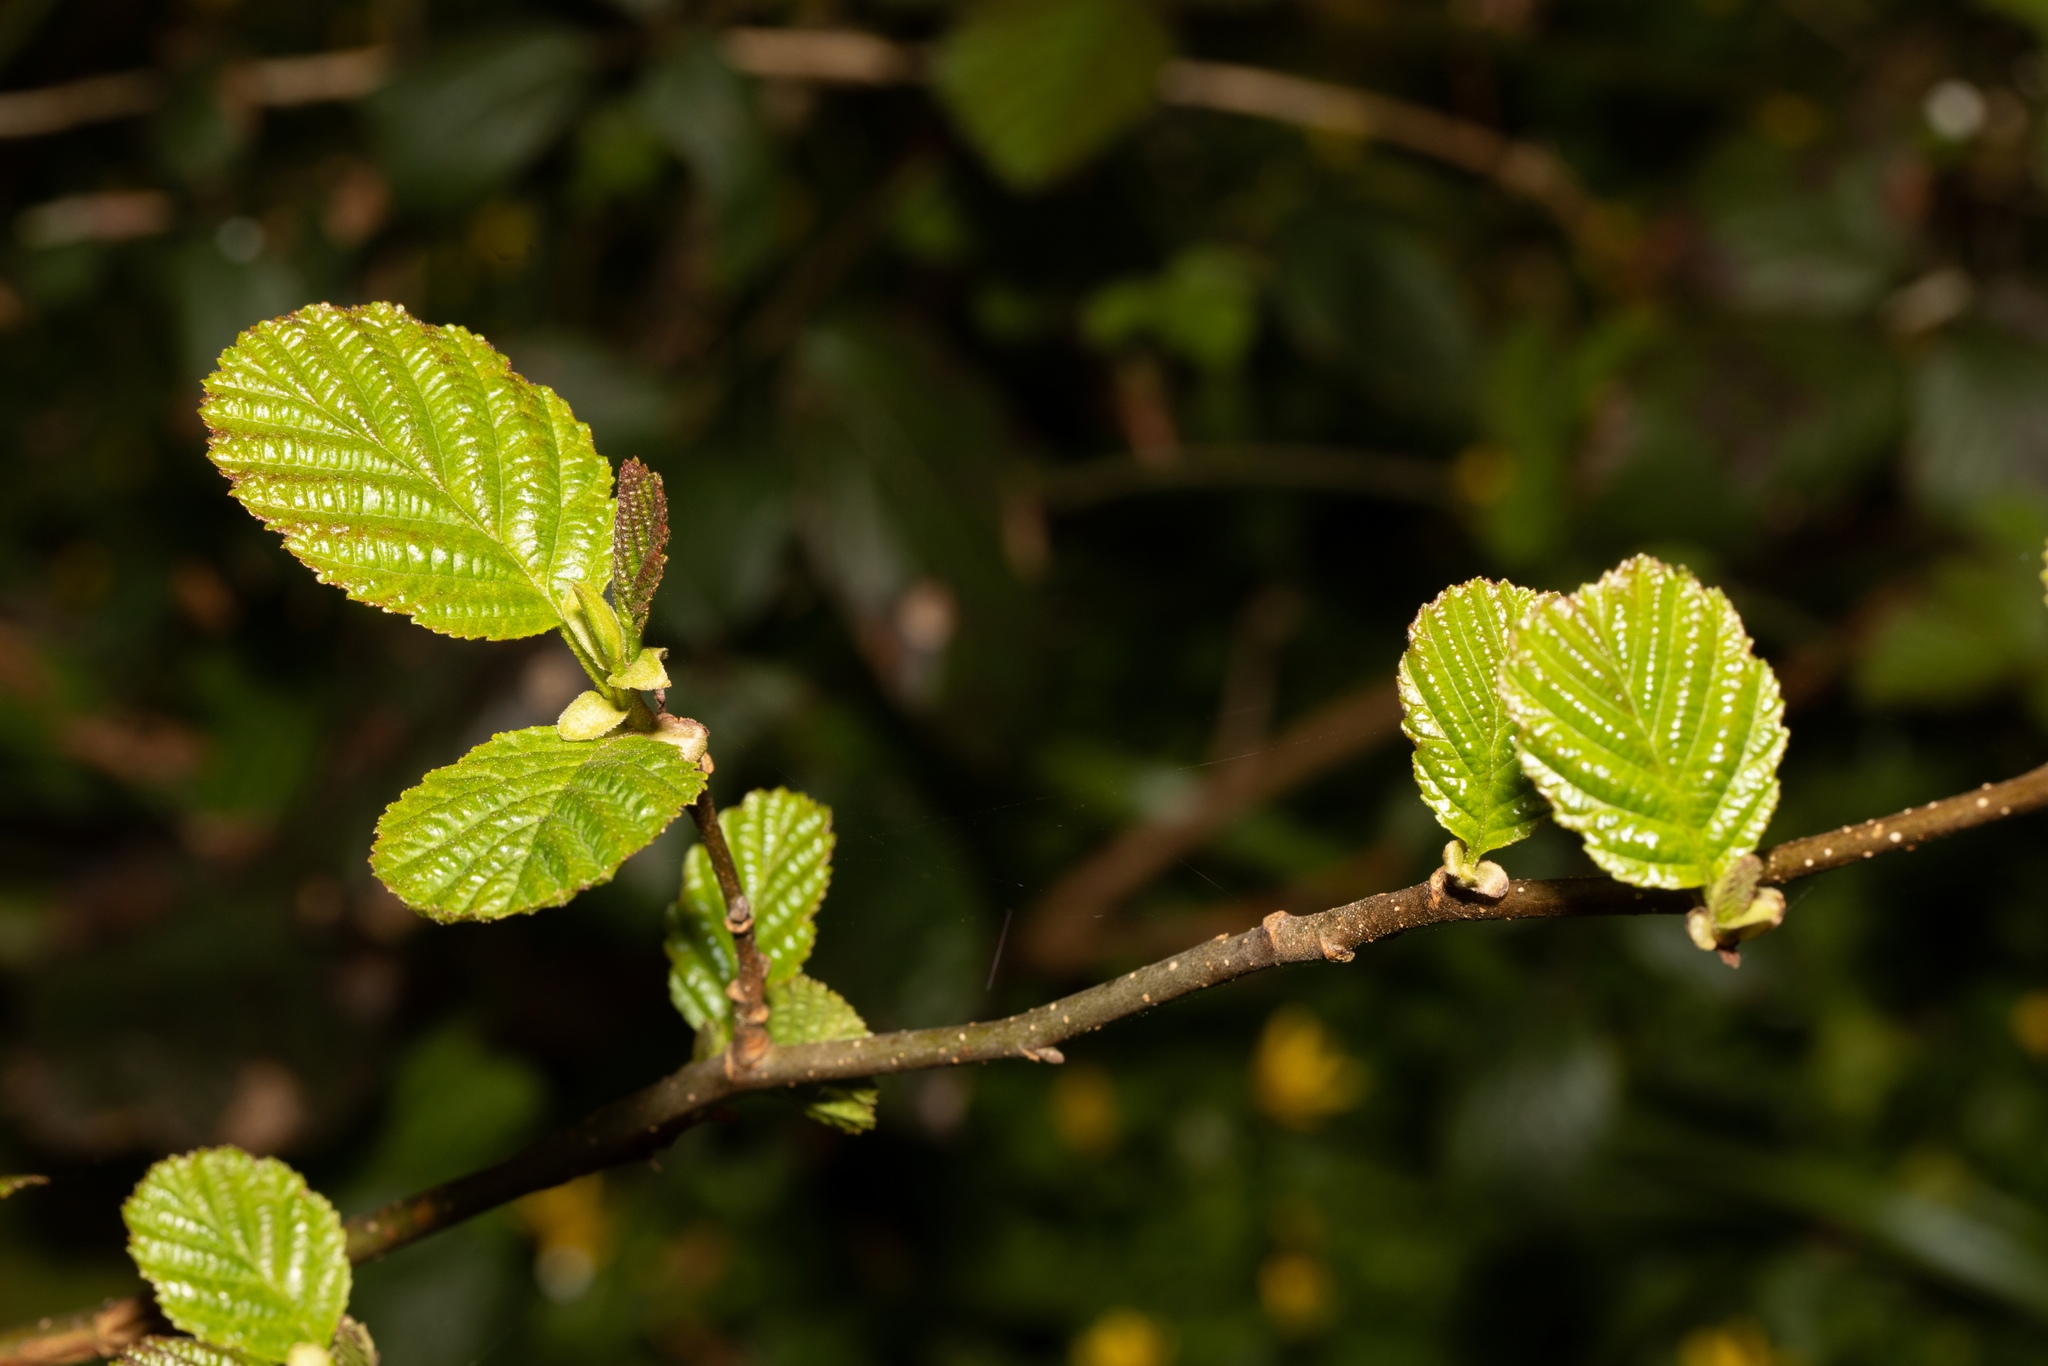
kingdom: Plantae
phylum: Tracheophyta
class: Magnoliopsida
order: Fagales
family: Betulaceae
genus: Alnus
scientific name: Alnus glutinosa
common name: Black alder
